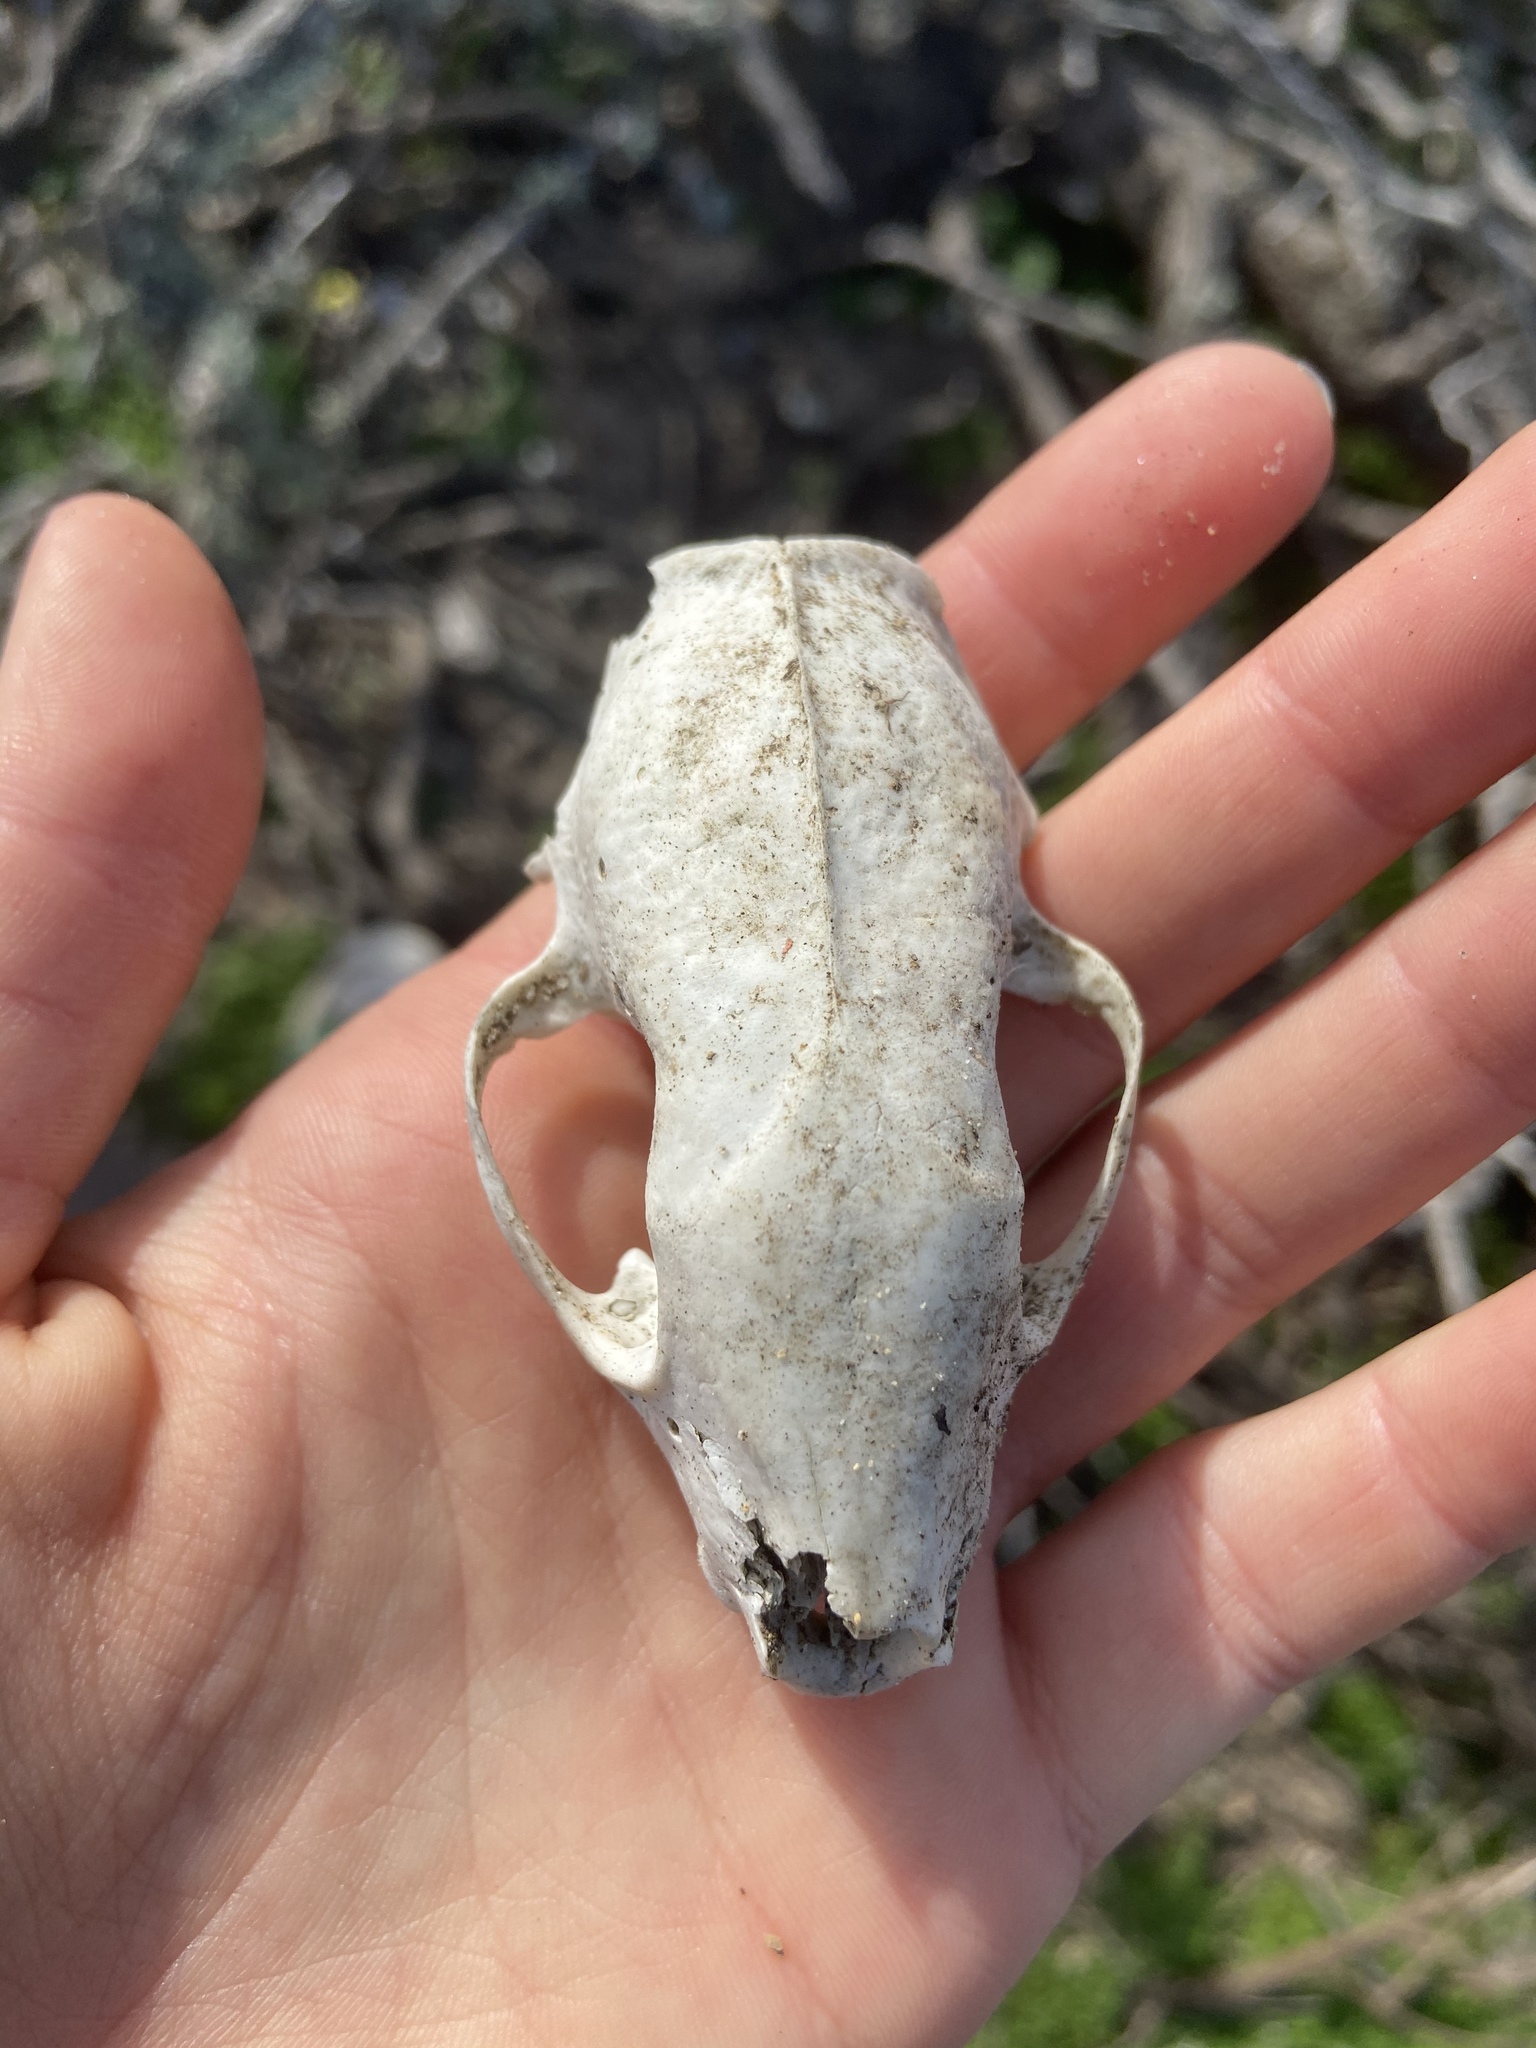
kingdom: Animalia
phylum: Chordata
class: Mammalia
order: Carnivora
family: Mephitidae
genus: Mephitis
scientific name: Mephitis mephitis
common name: Striped skunk
